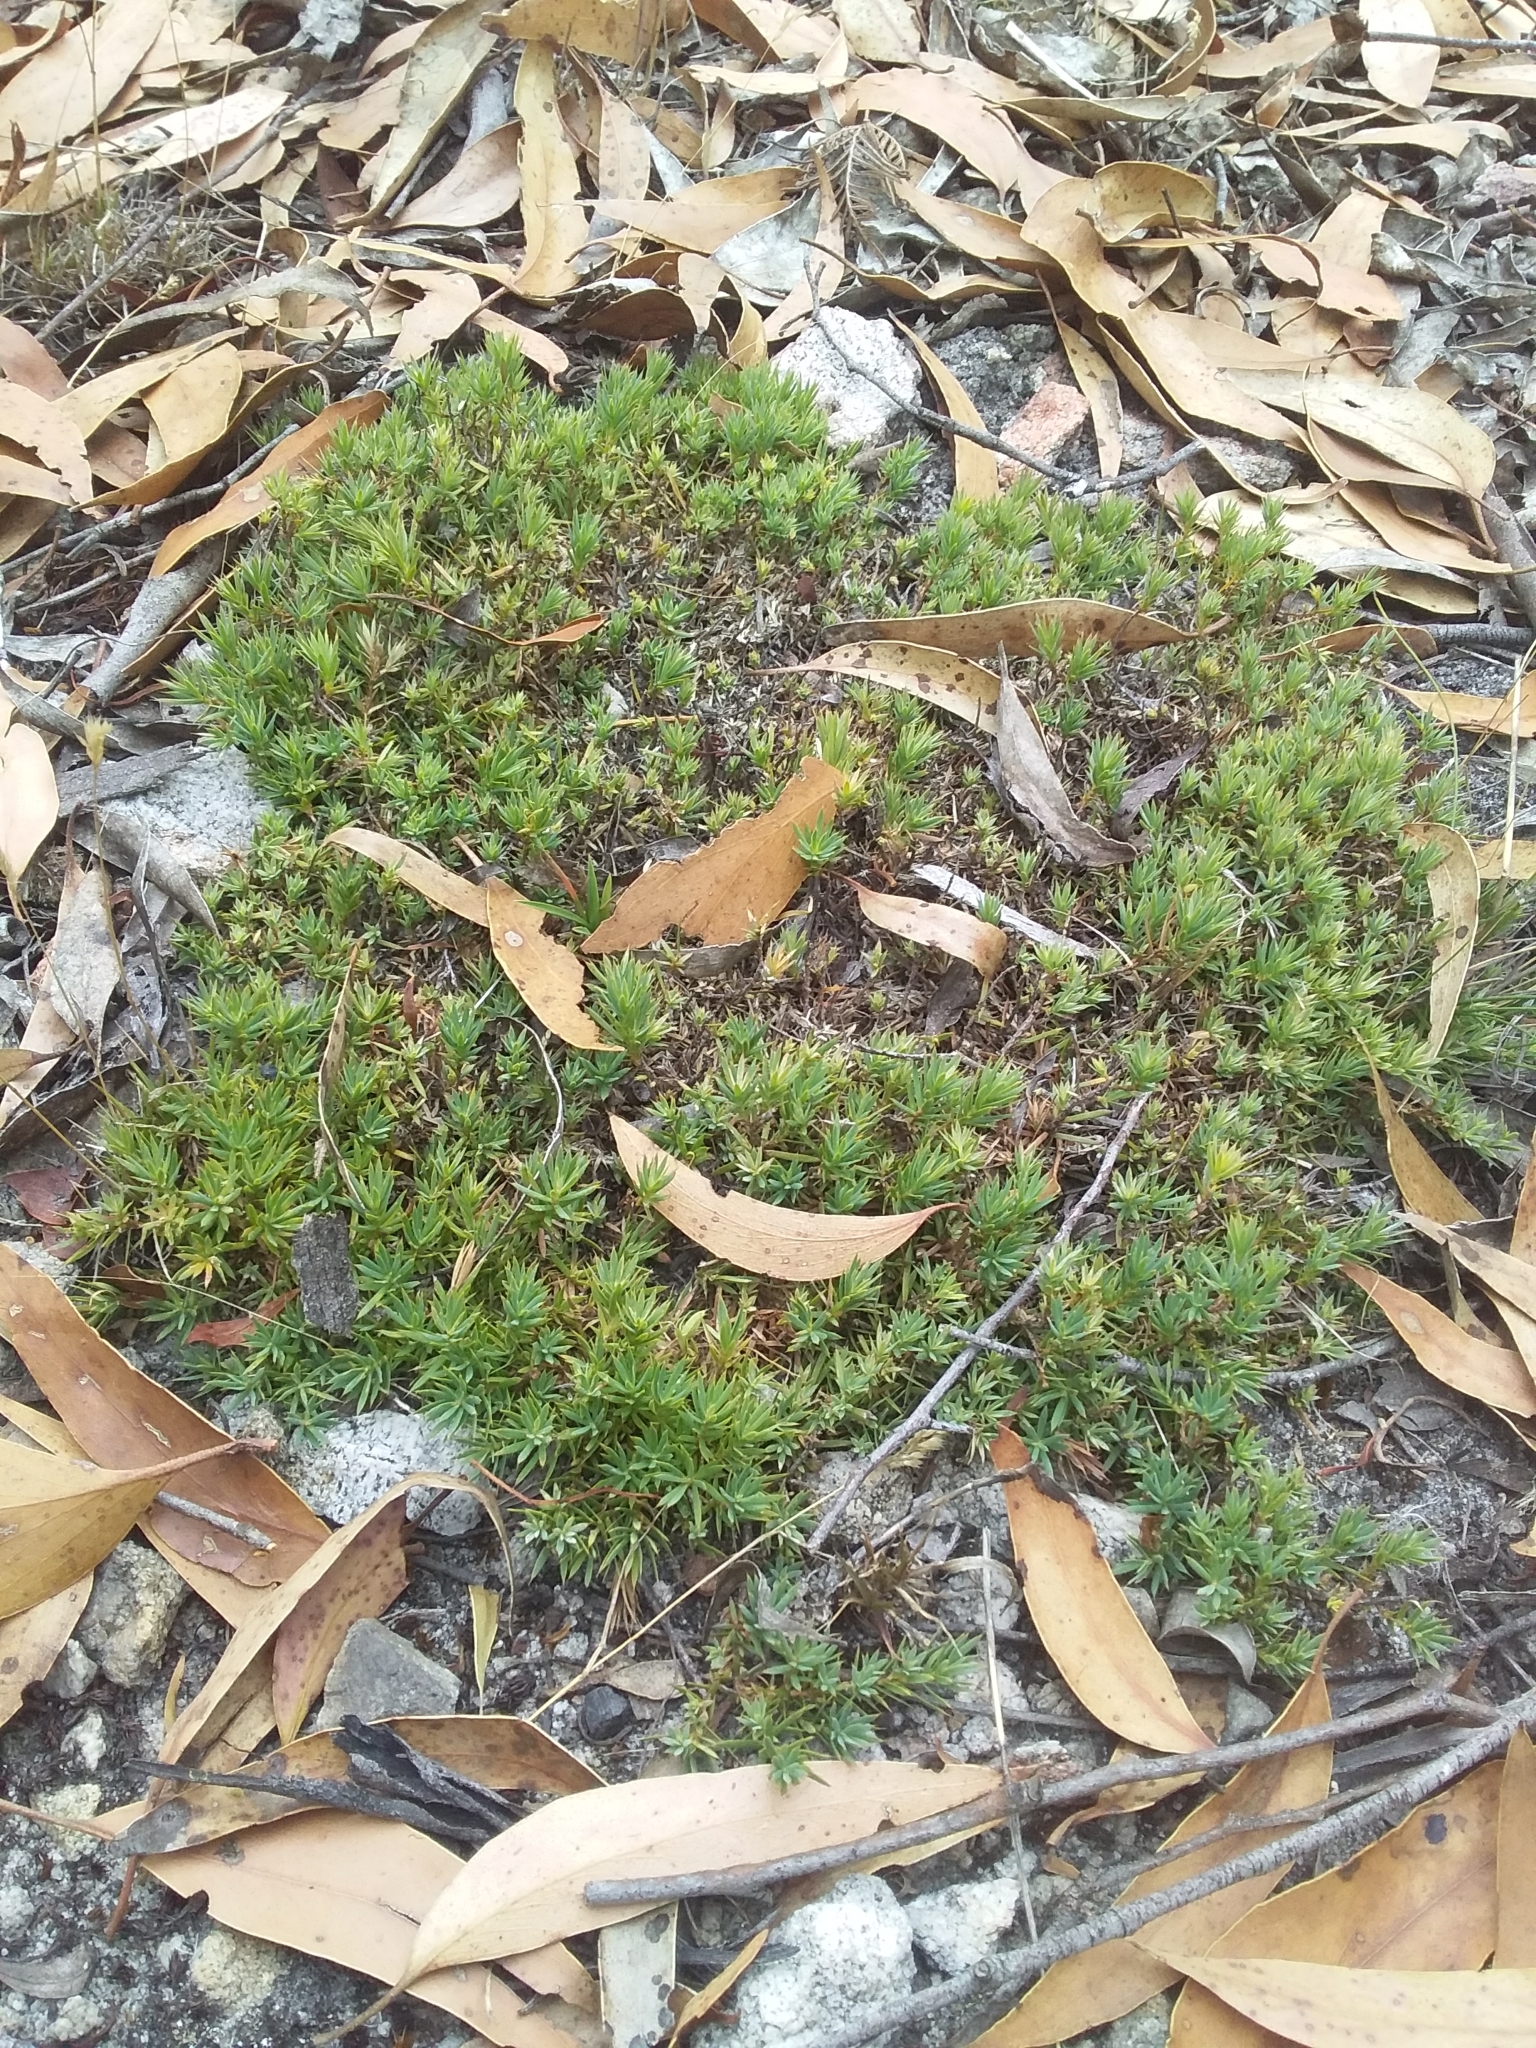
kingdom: Plantae
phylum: Tracheophyta
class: Magnoliopsida
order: Ericales
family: Ericaceae
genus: Styphelia
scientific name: Styphelia humifusa
